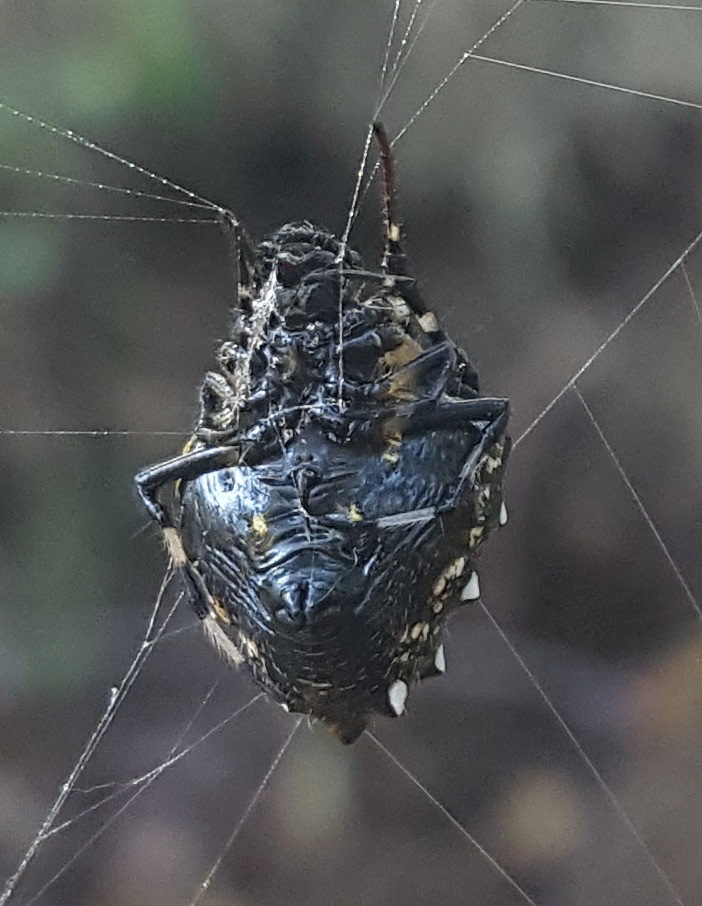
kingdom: Animalia
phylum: Arthropoda
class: Arachnida
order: Araneae
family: Araneidae
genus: Verrucosa
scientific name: Verrucosa arenata
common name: Orb weavers
